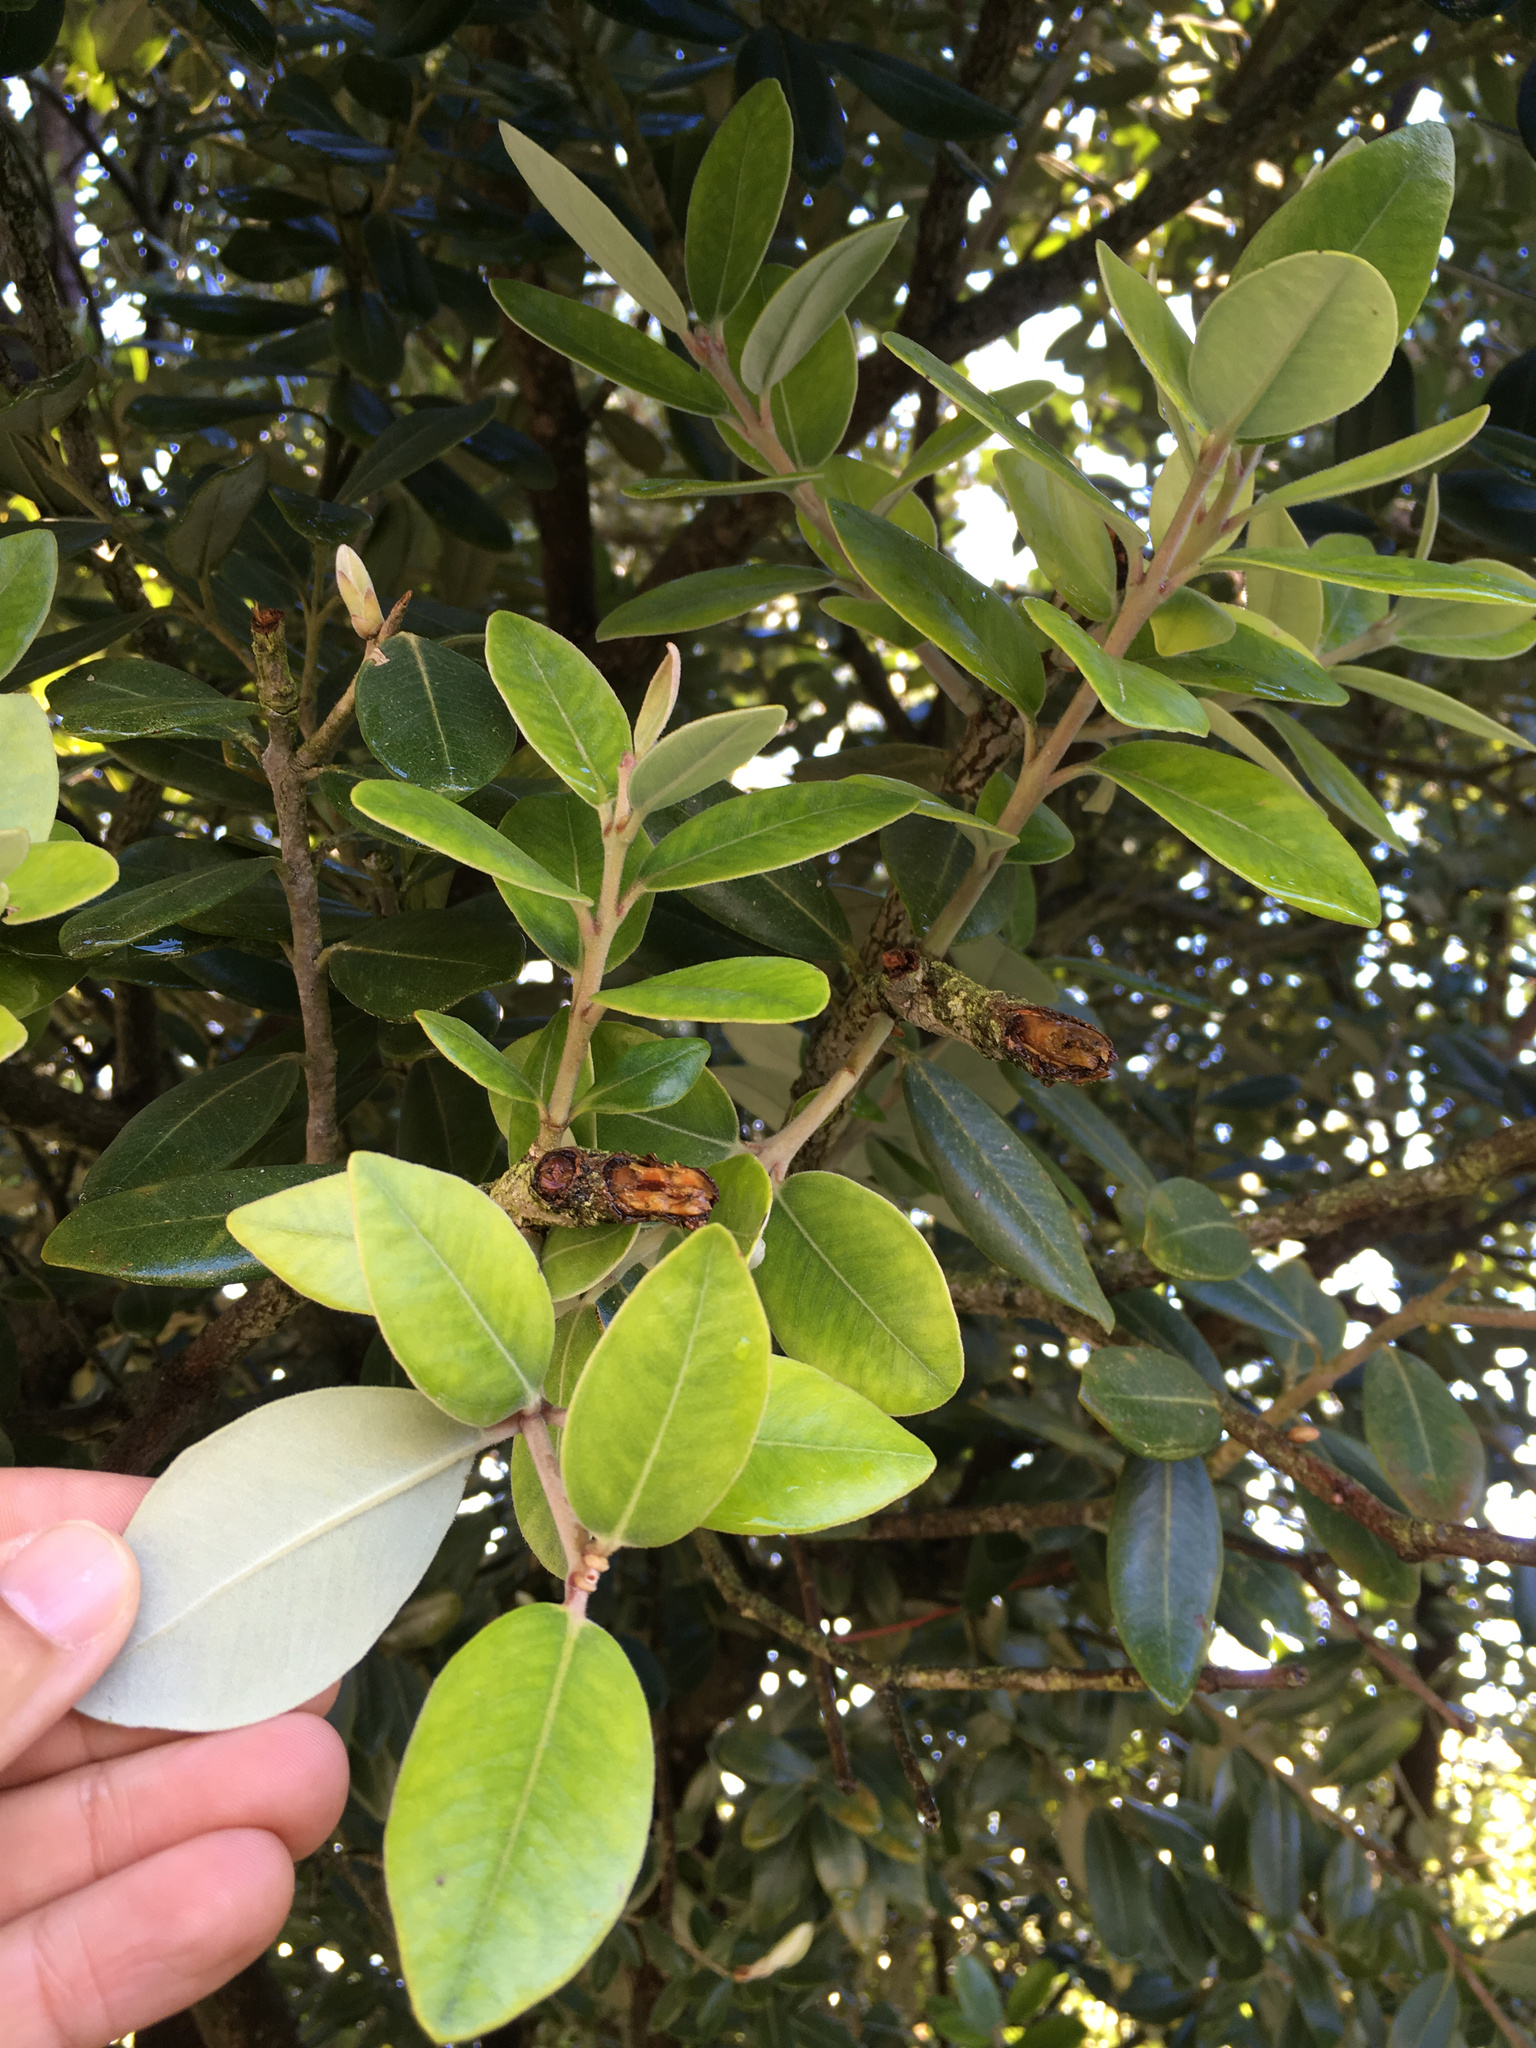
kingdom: Plantae
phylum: Tracheophyta
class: Magnoliopsida
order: Myrtales
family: Myrtaceae
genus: Metrosideros
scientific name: Metrosideros excelsa
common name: New zealand christmastree
